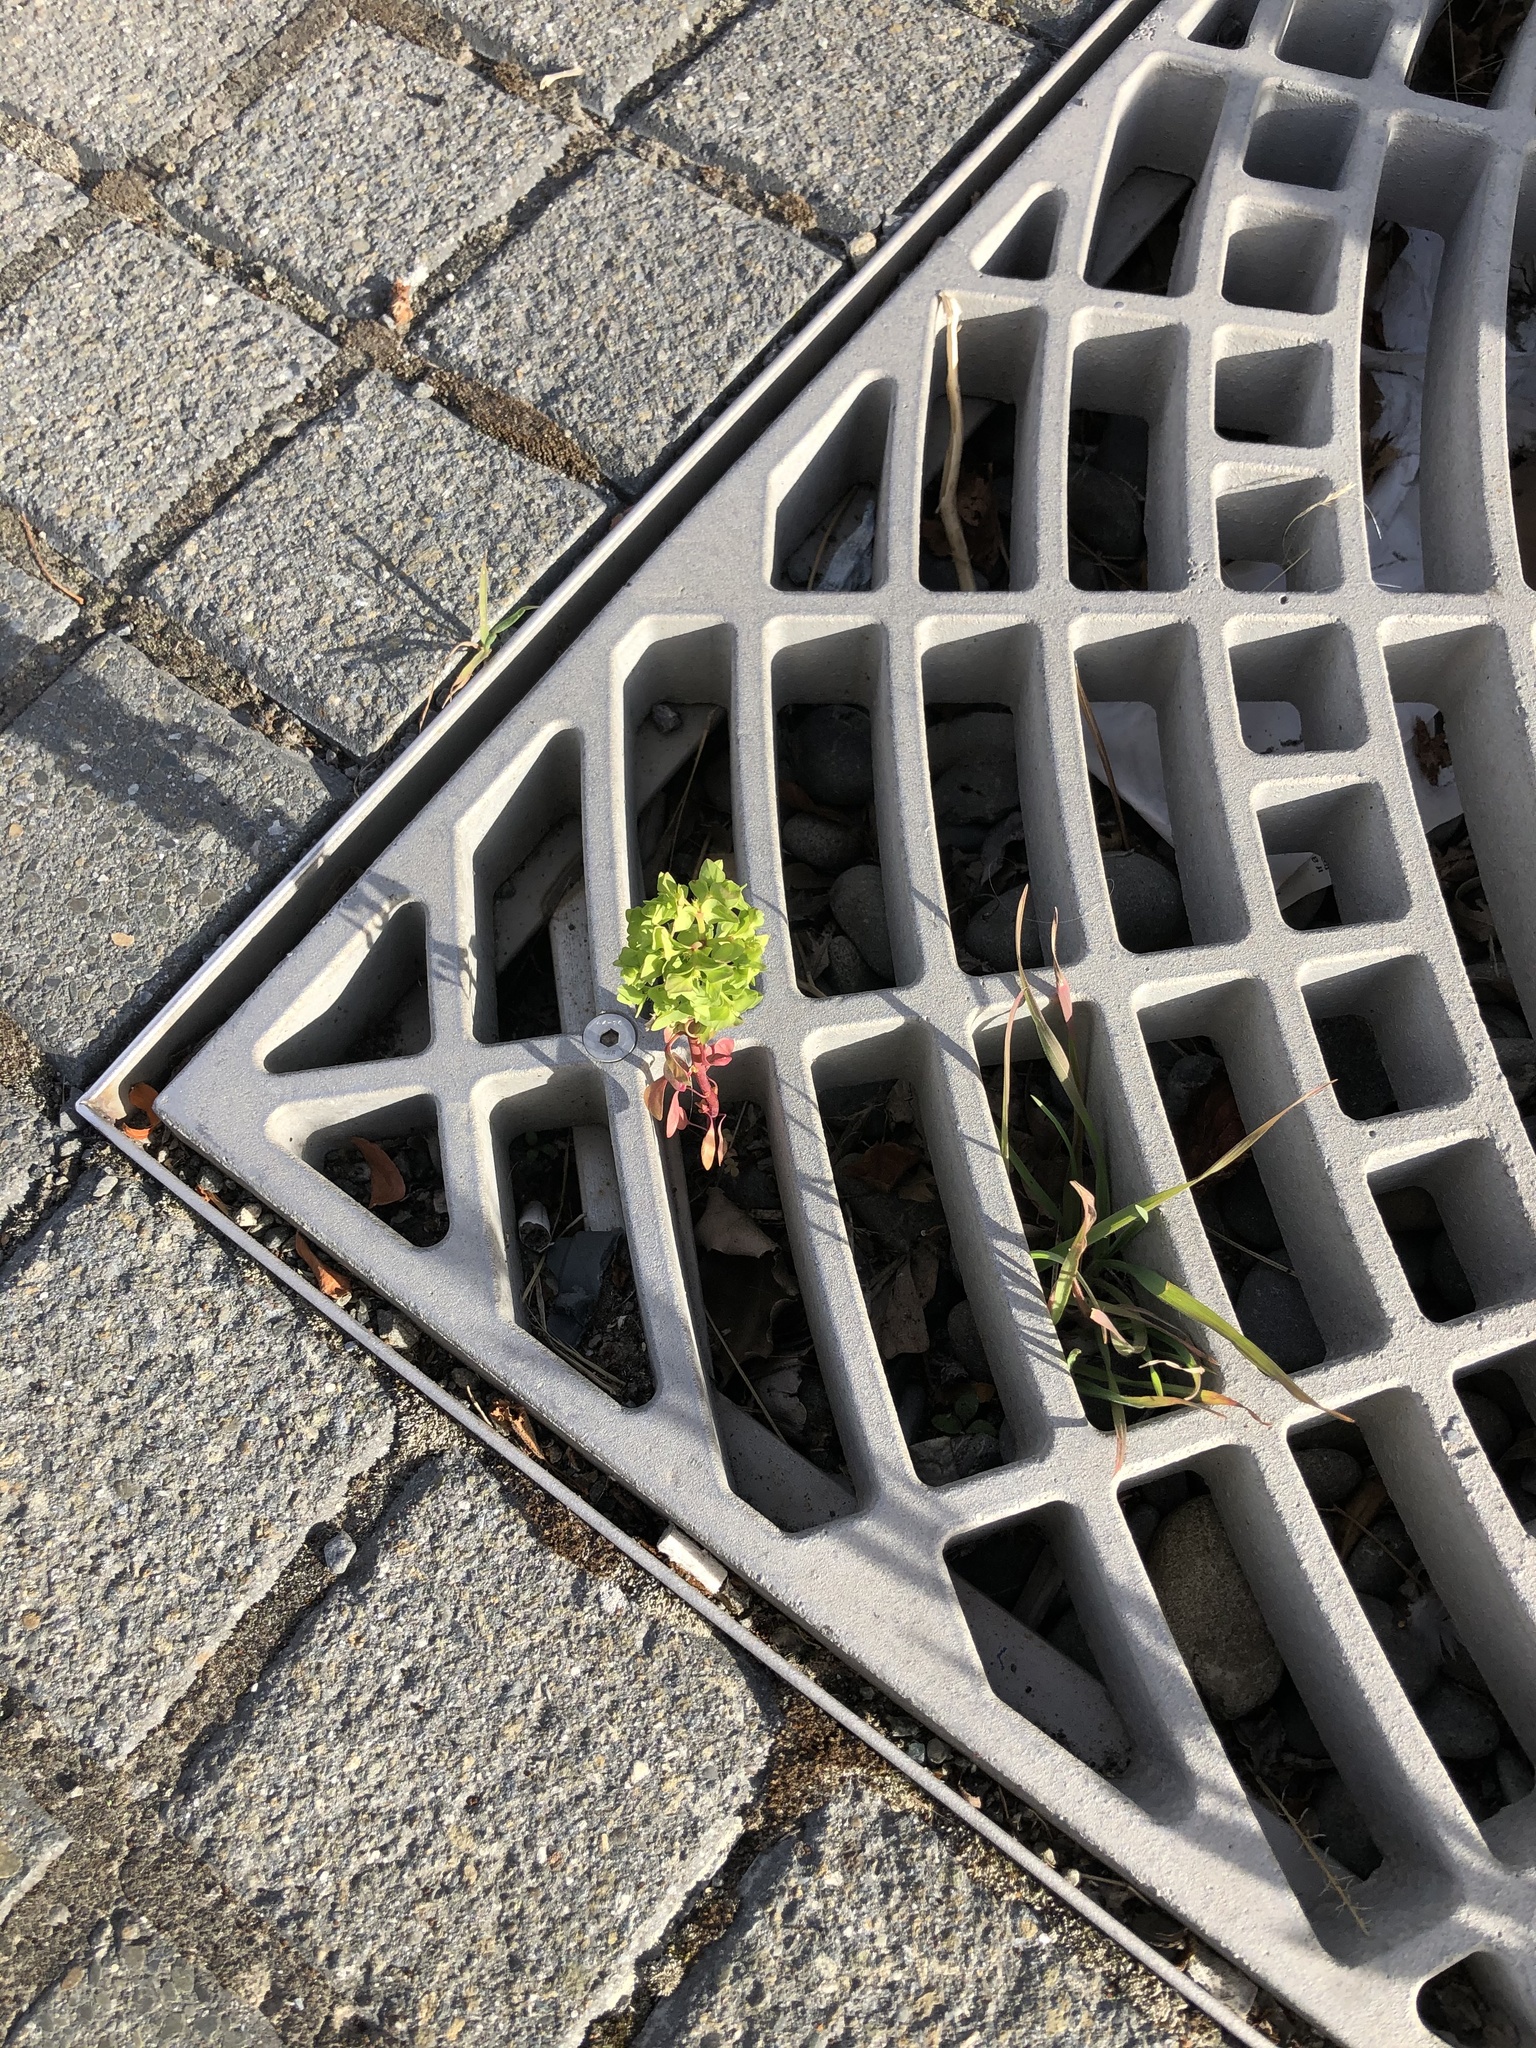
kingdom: Plantae
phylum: Tracheophyta
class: Magnoliopsida
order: Malpighiales
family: Euphorbiaceae
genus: Euphorbia
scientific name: Euphorbia peplus
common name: Petty spurge
